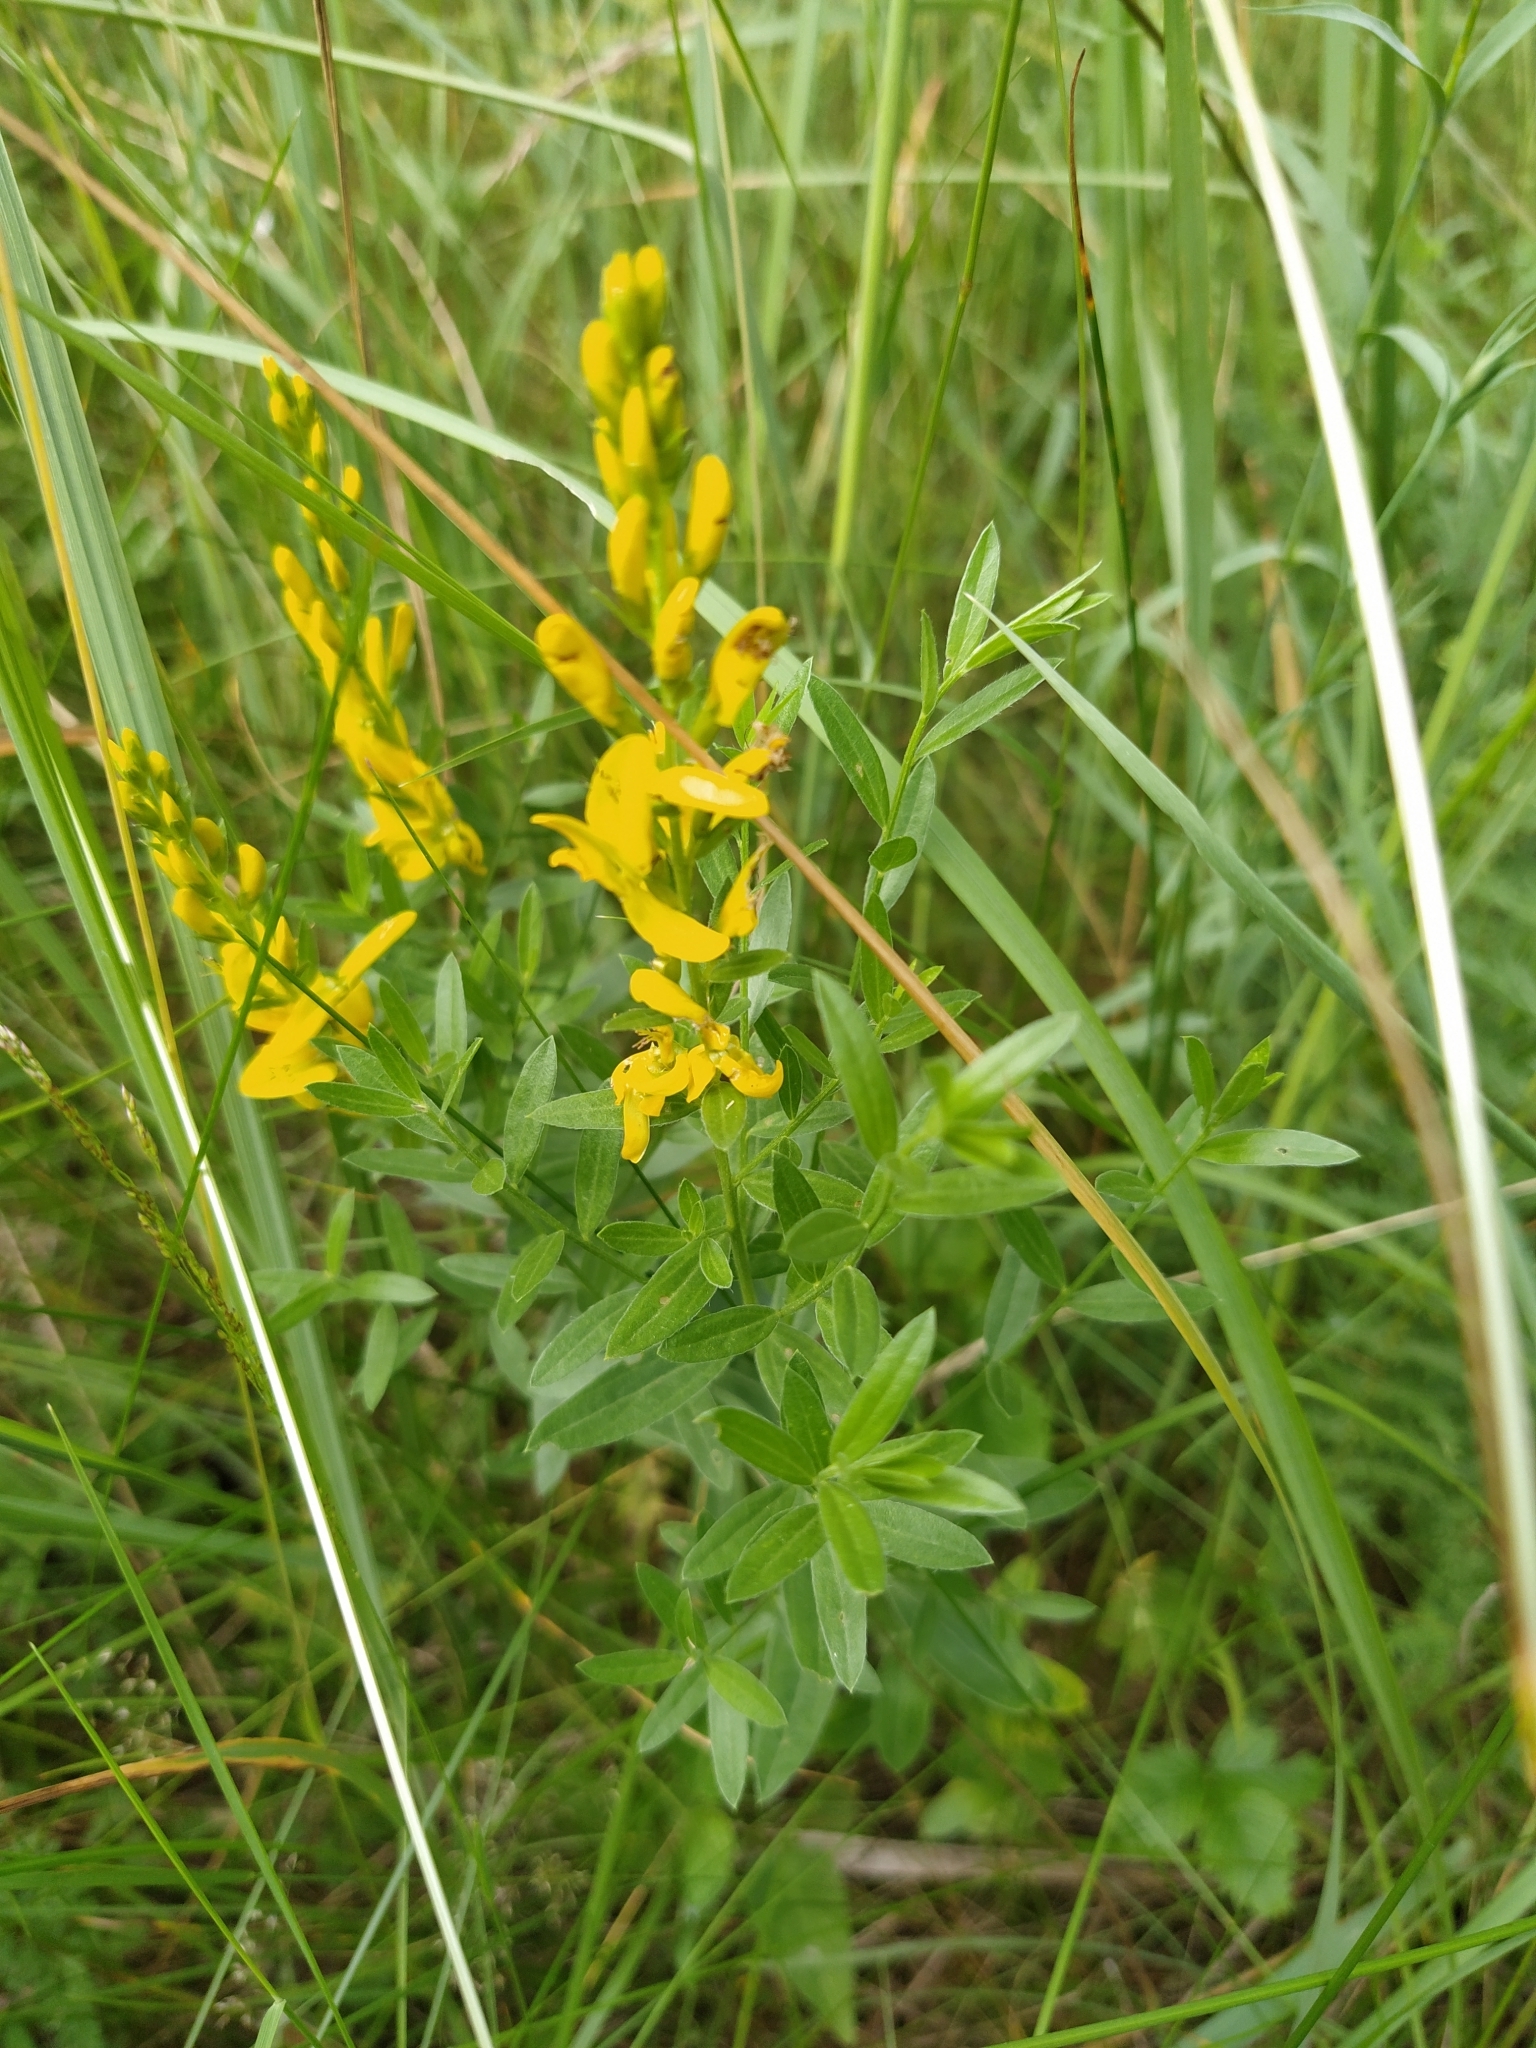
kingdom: Plantae
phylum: Tracheophyta
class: Magnoliopsida
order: Fabales
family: Fabaceae
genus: Genista
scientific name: Genista tinctoria
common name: Dyer's greenweed
